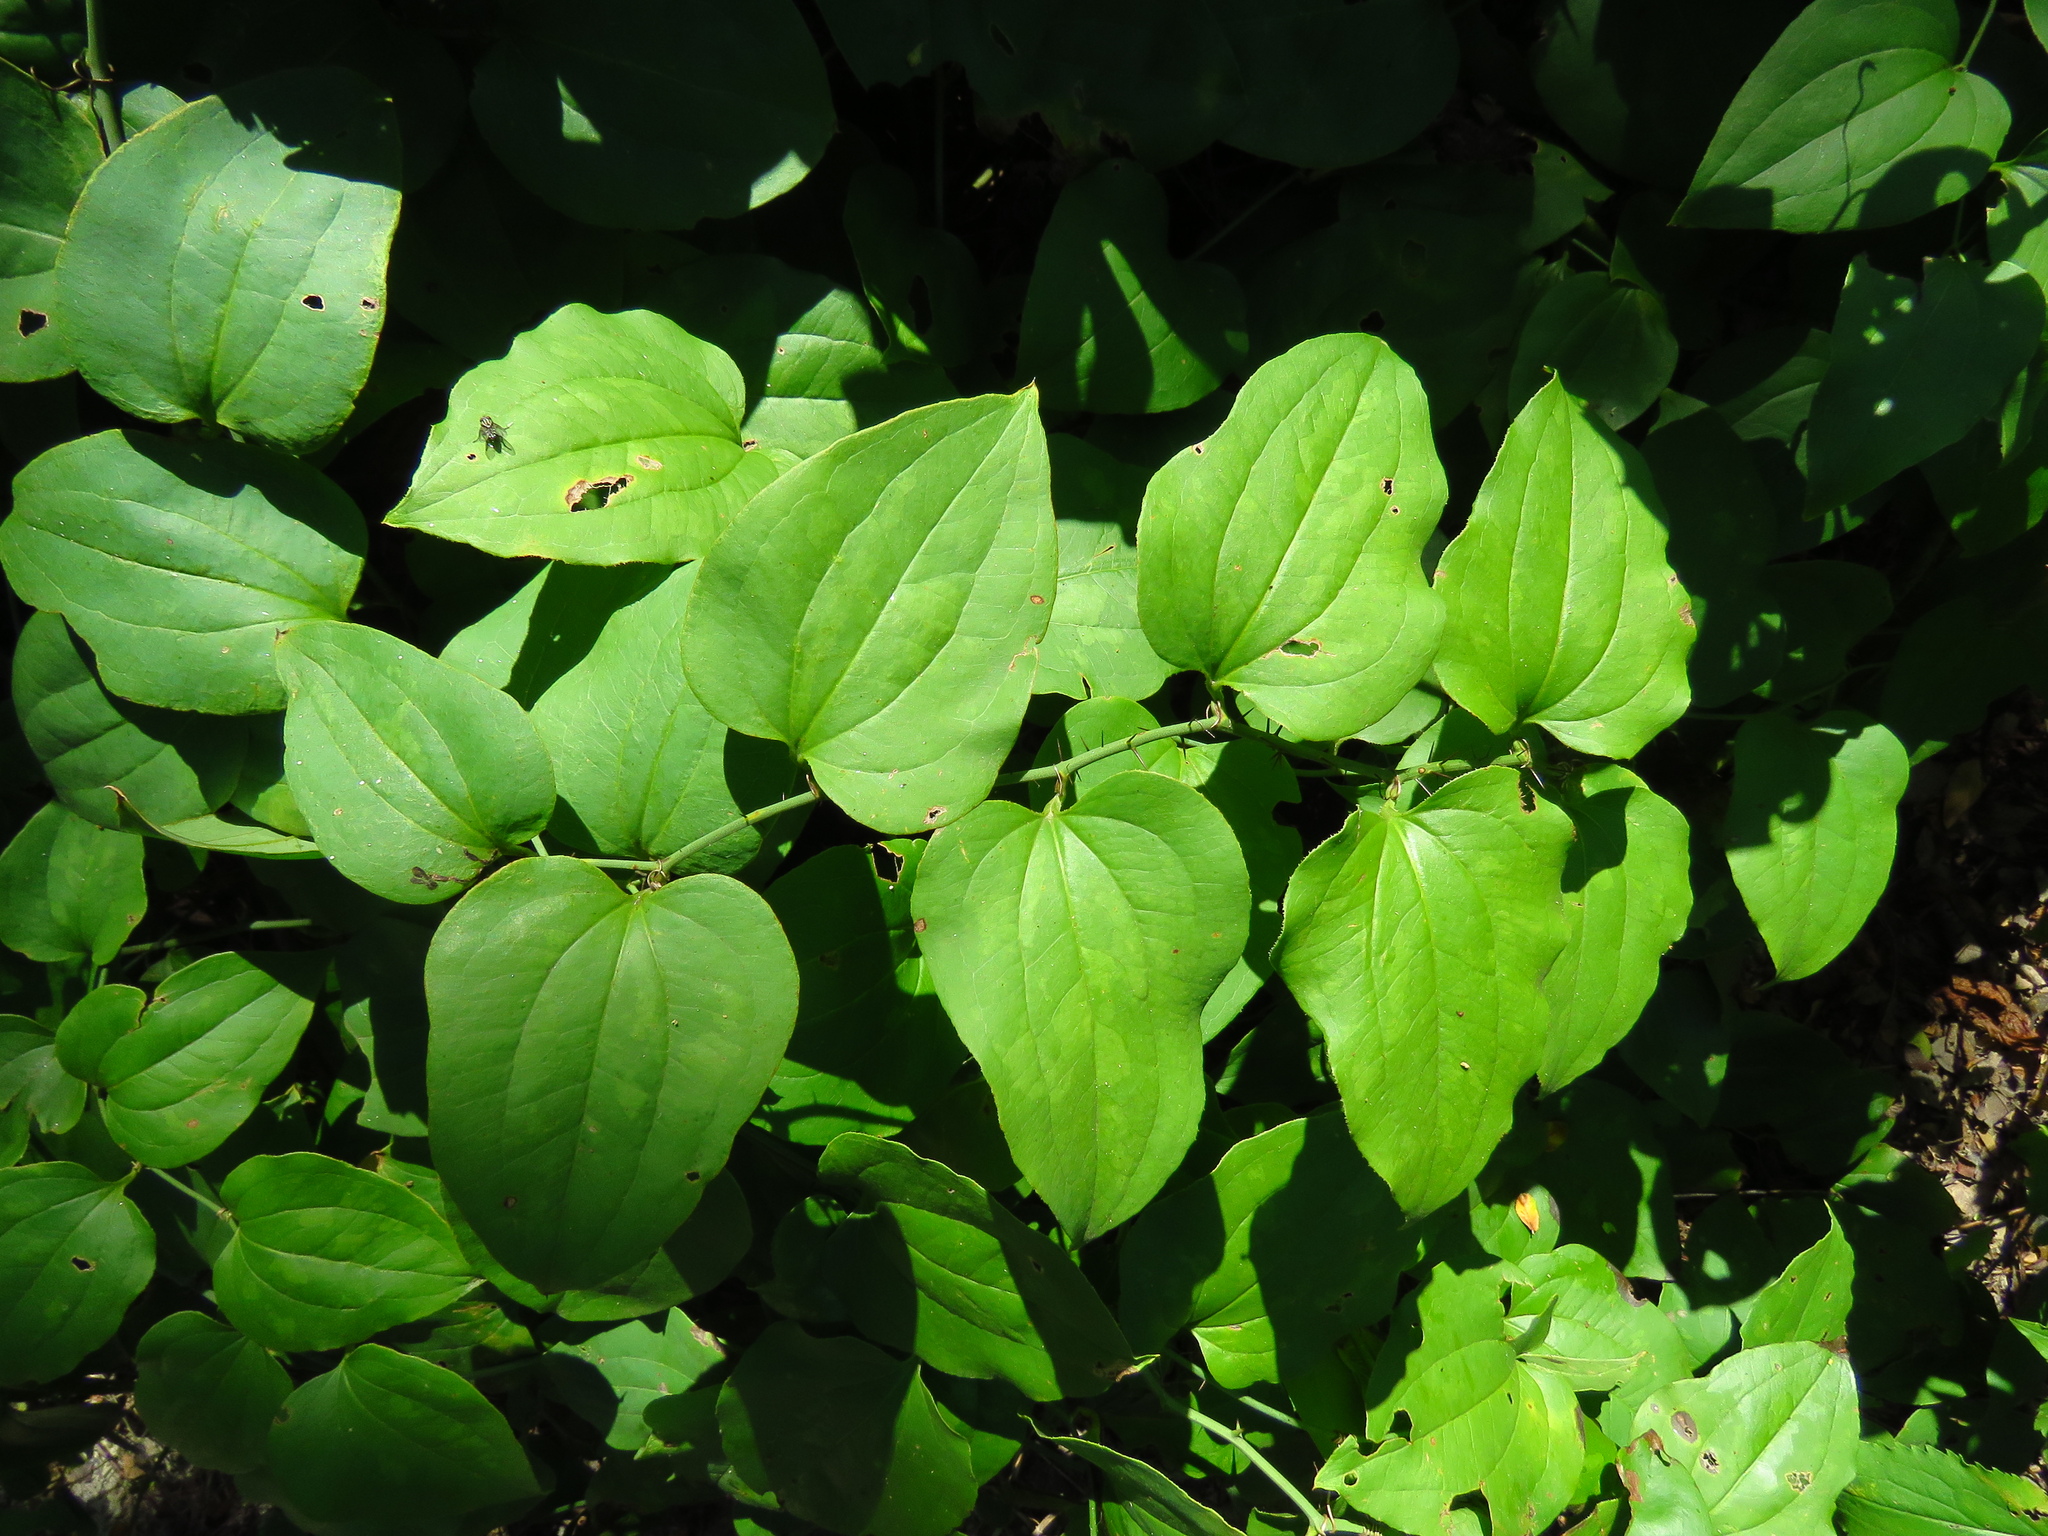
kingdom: Plantae
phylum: Tracheophyta
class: Liliopsida
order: Liliales
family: Smilacaceae
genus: Smilax
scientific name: Smilax tamnoides
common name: Hellfetter
